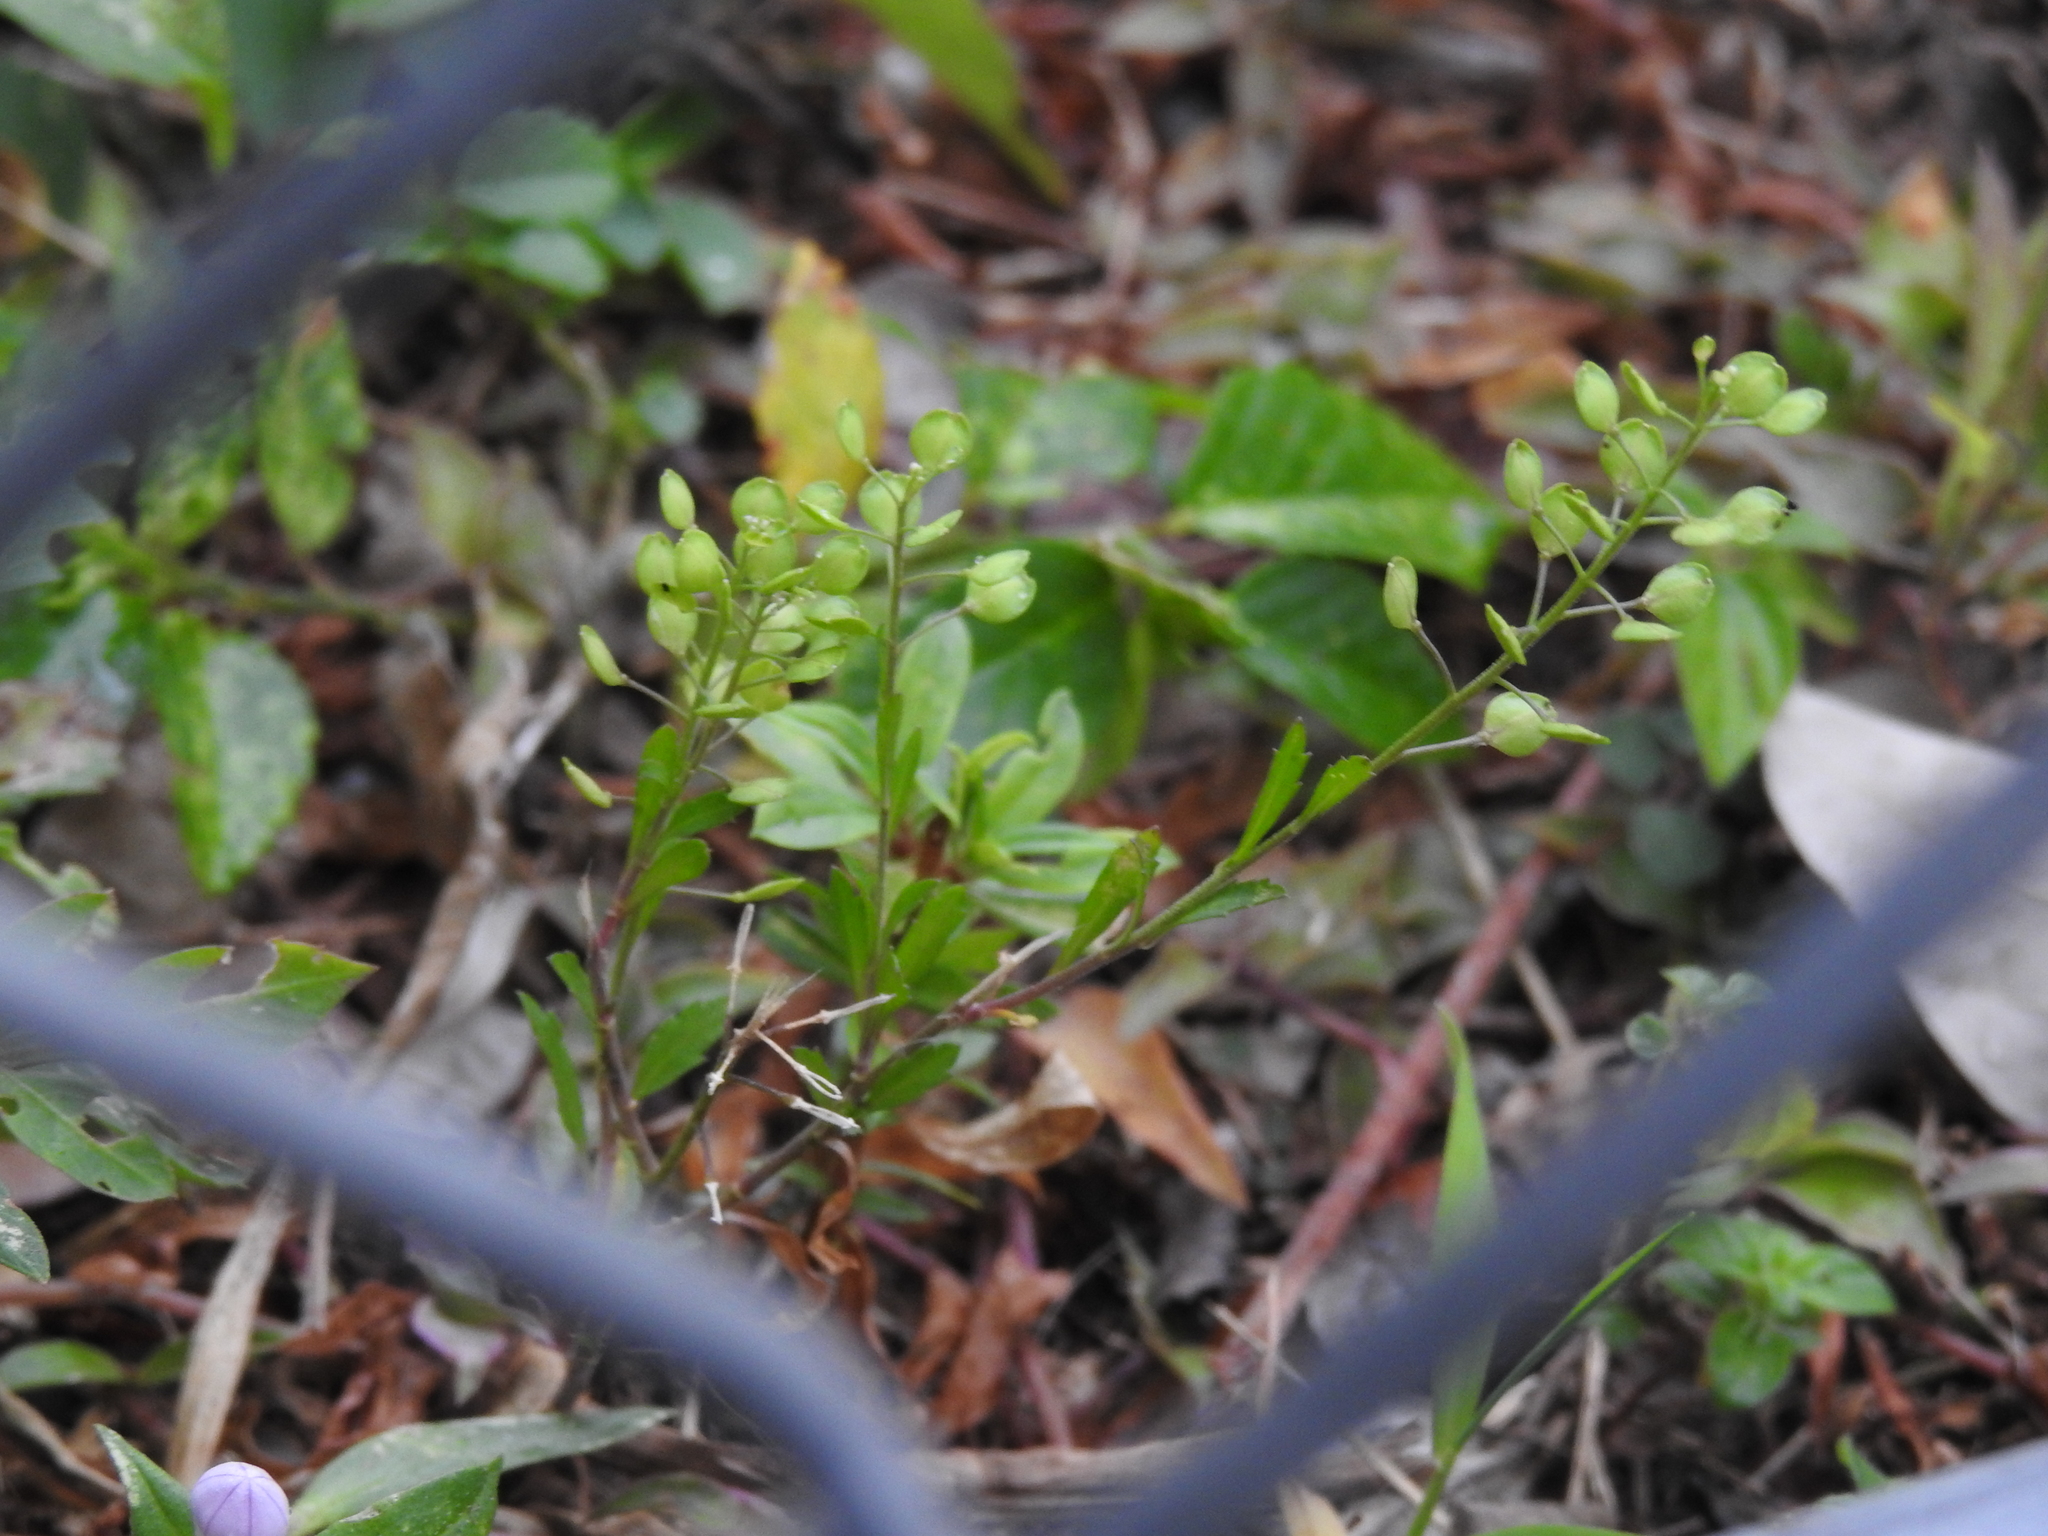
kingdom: Plantae
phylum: Tracheophyta
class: Magnoliopsida
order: Brassicales
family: Brassicaceae
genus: Lepidium
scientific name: Lepidium virginicum
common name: Least pepperwort
